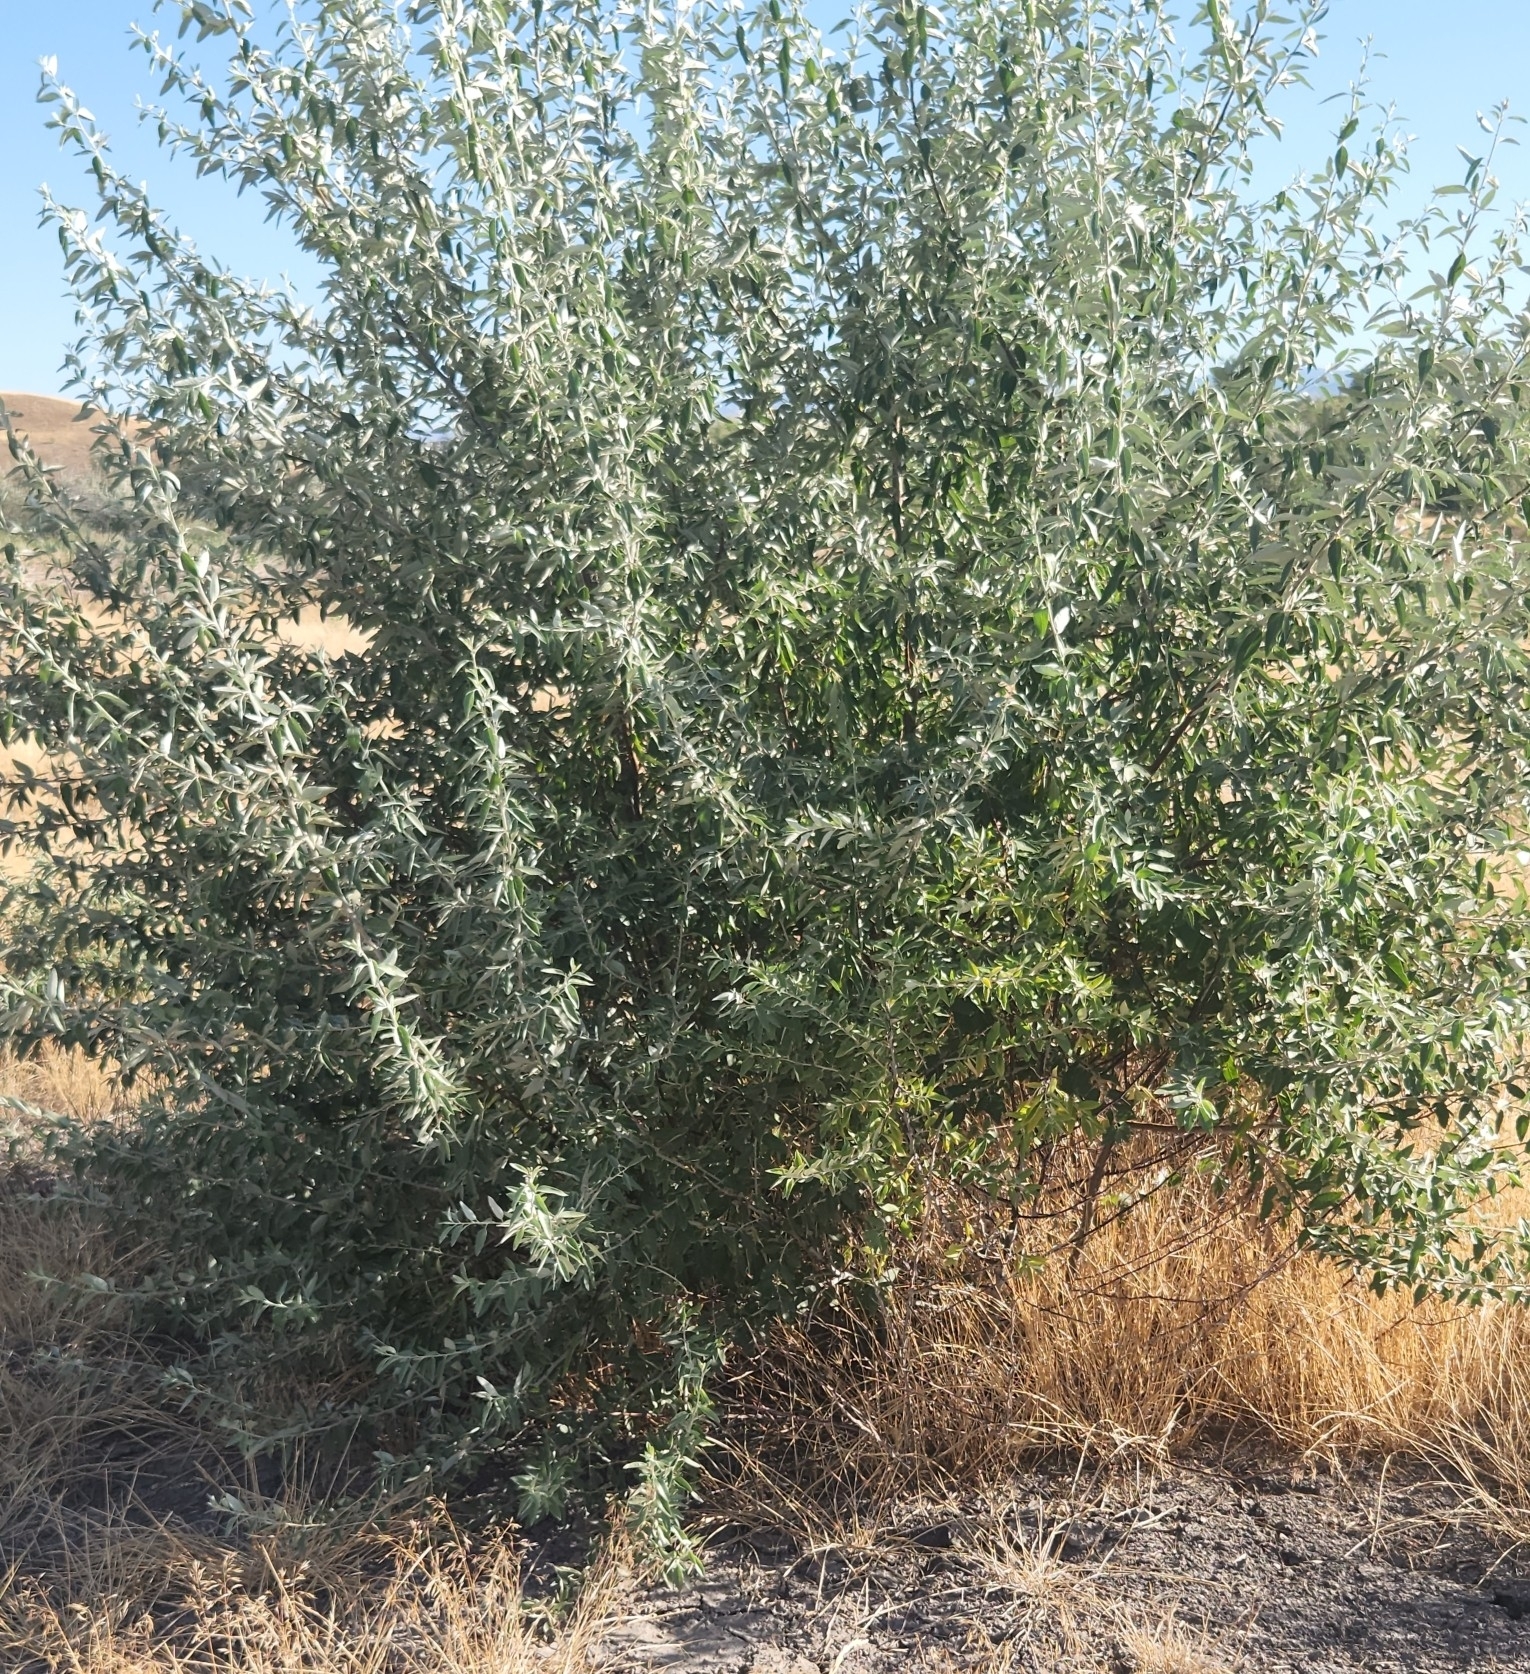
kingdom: Plantae
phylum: Tracheophyta
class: Magnoliopsida
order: Rosales
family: Elaeagnaceae
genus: Elaeagnus
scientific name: Elaeagnus angustifolia
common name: Russian olive
